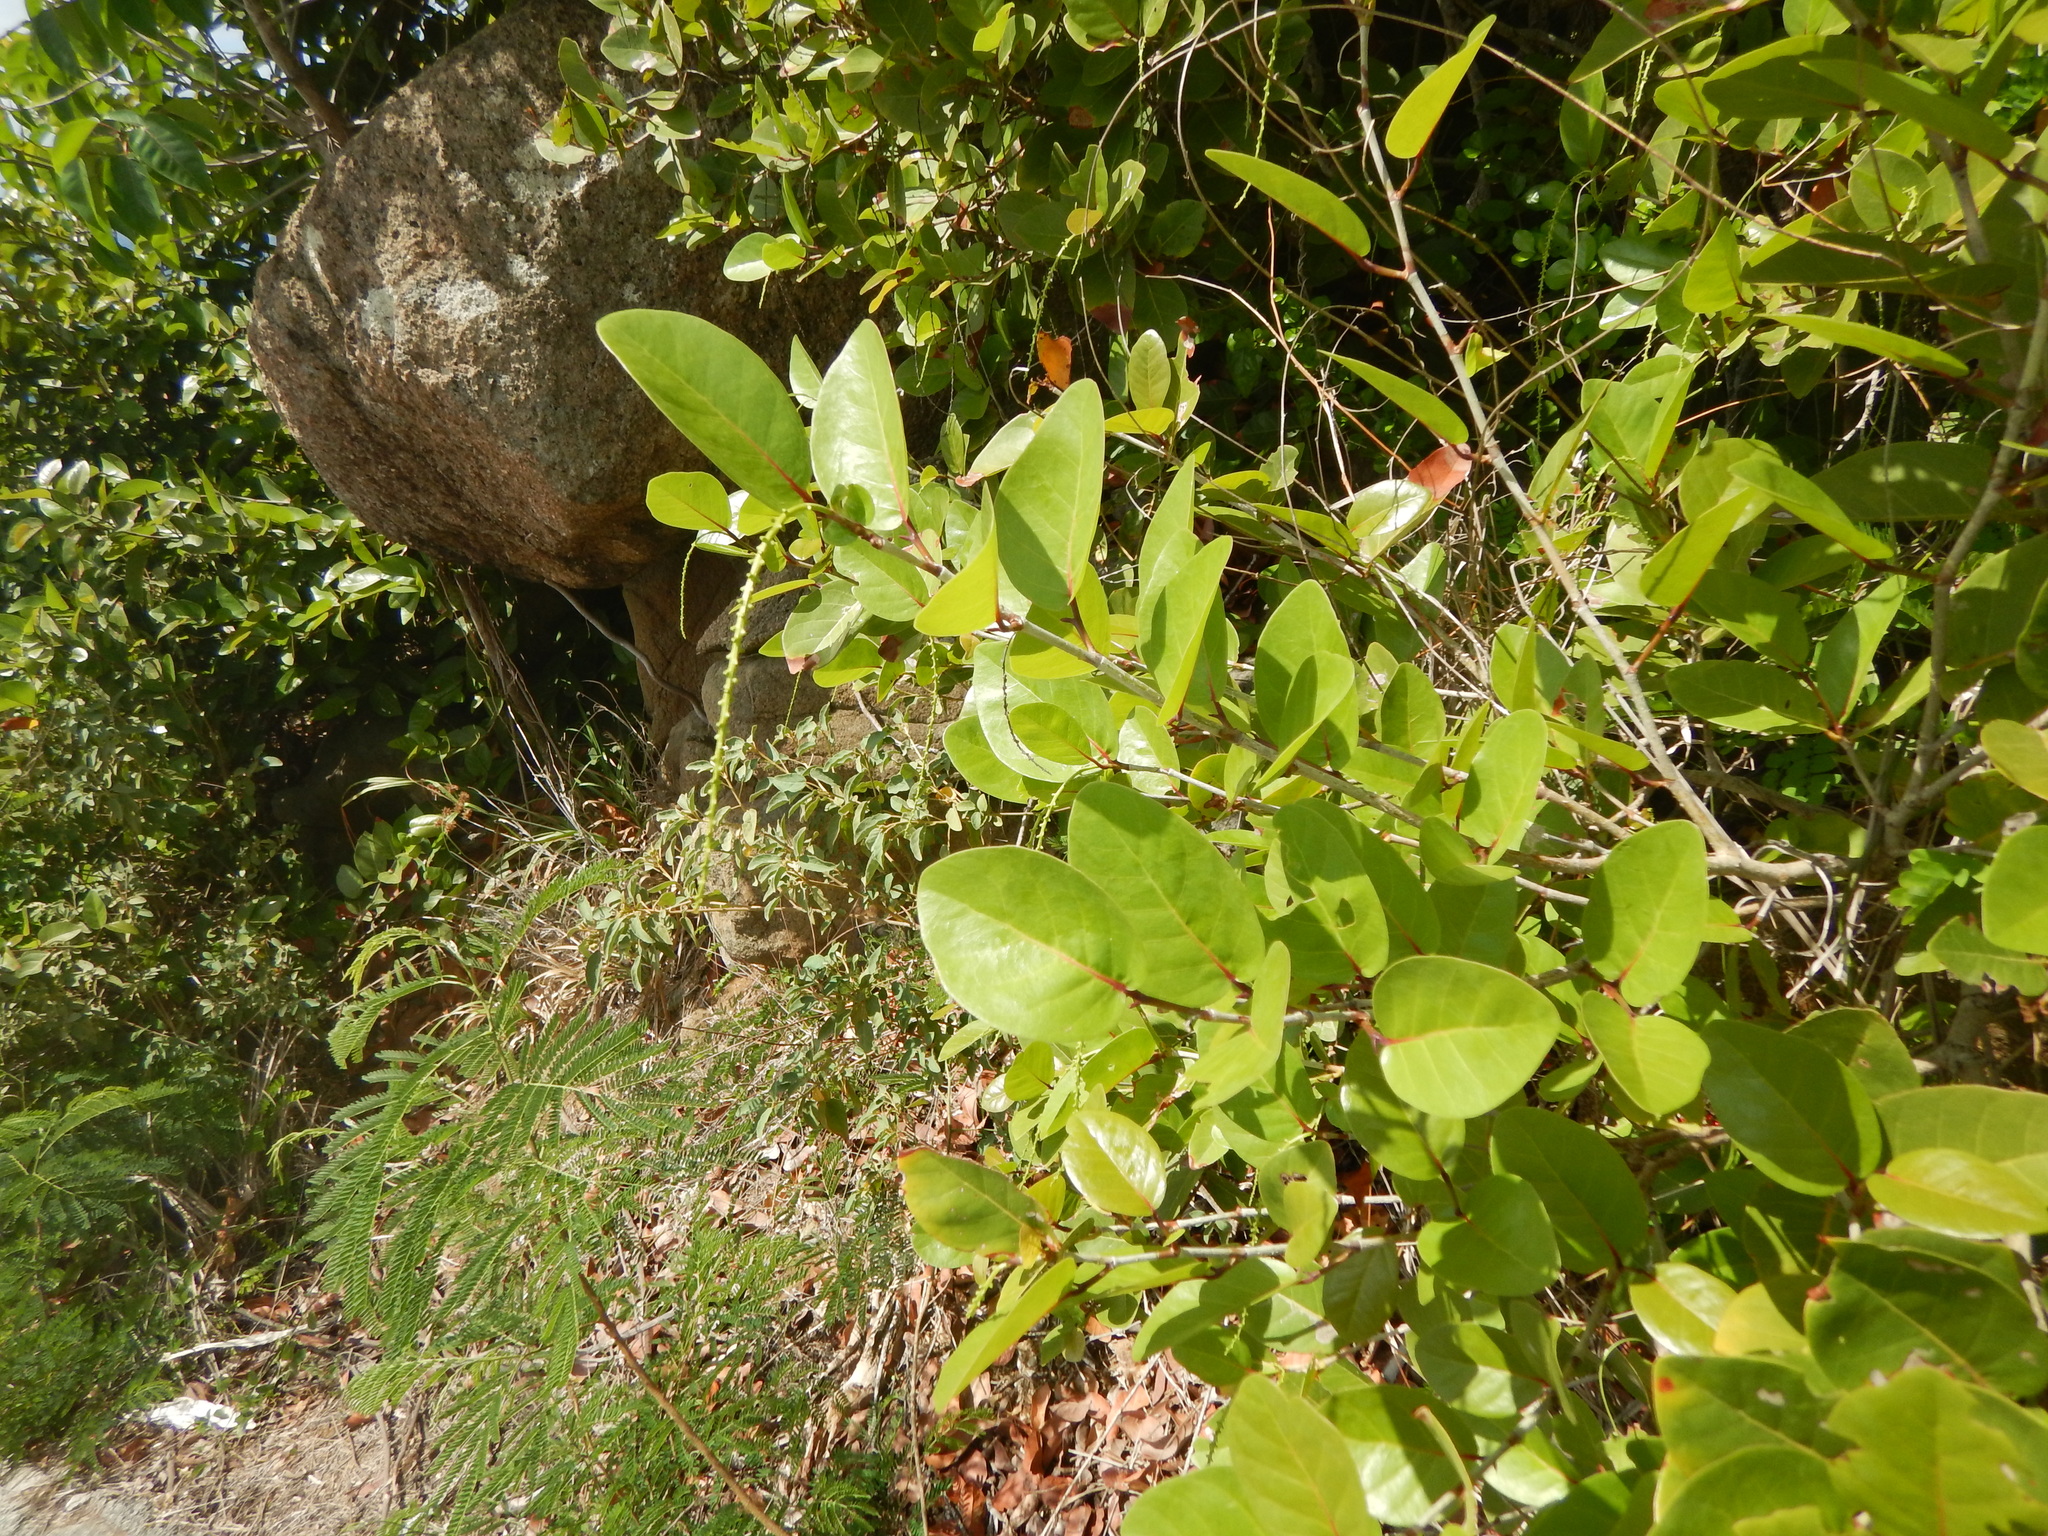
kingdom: Plantae
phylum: Tracheophyta
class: Magnoliopsida
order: Caryophyllales
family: Polygonaceae
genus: Coccoloba
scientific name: Coccoloba
